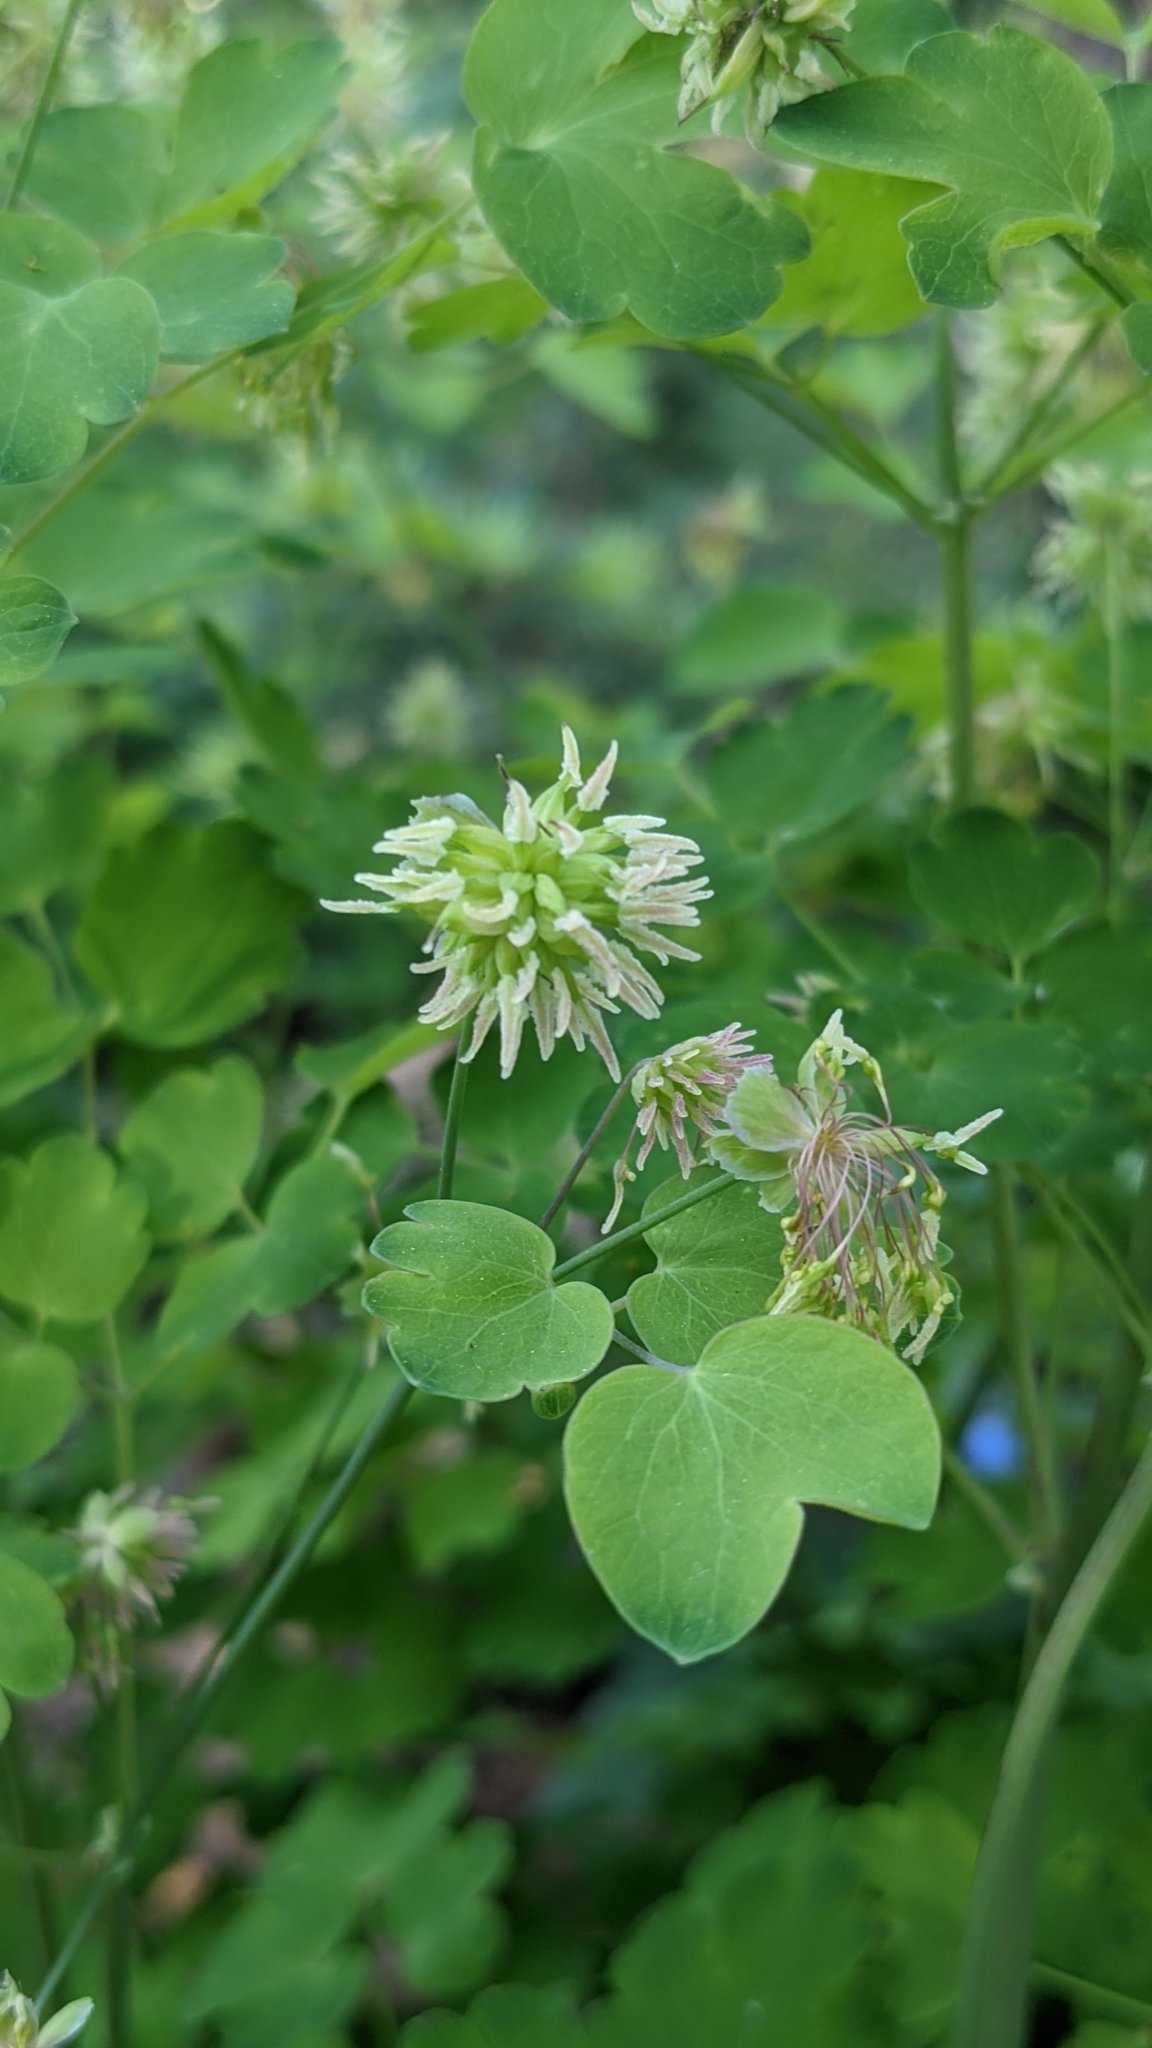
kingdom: Plantae
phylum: Tracheophyta
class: Magnoliopsida
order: Ranunculales
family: Ranunculaceae
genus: Thalictrum
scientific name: Thalictrum fendleri
